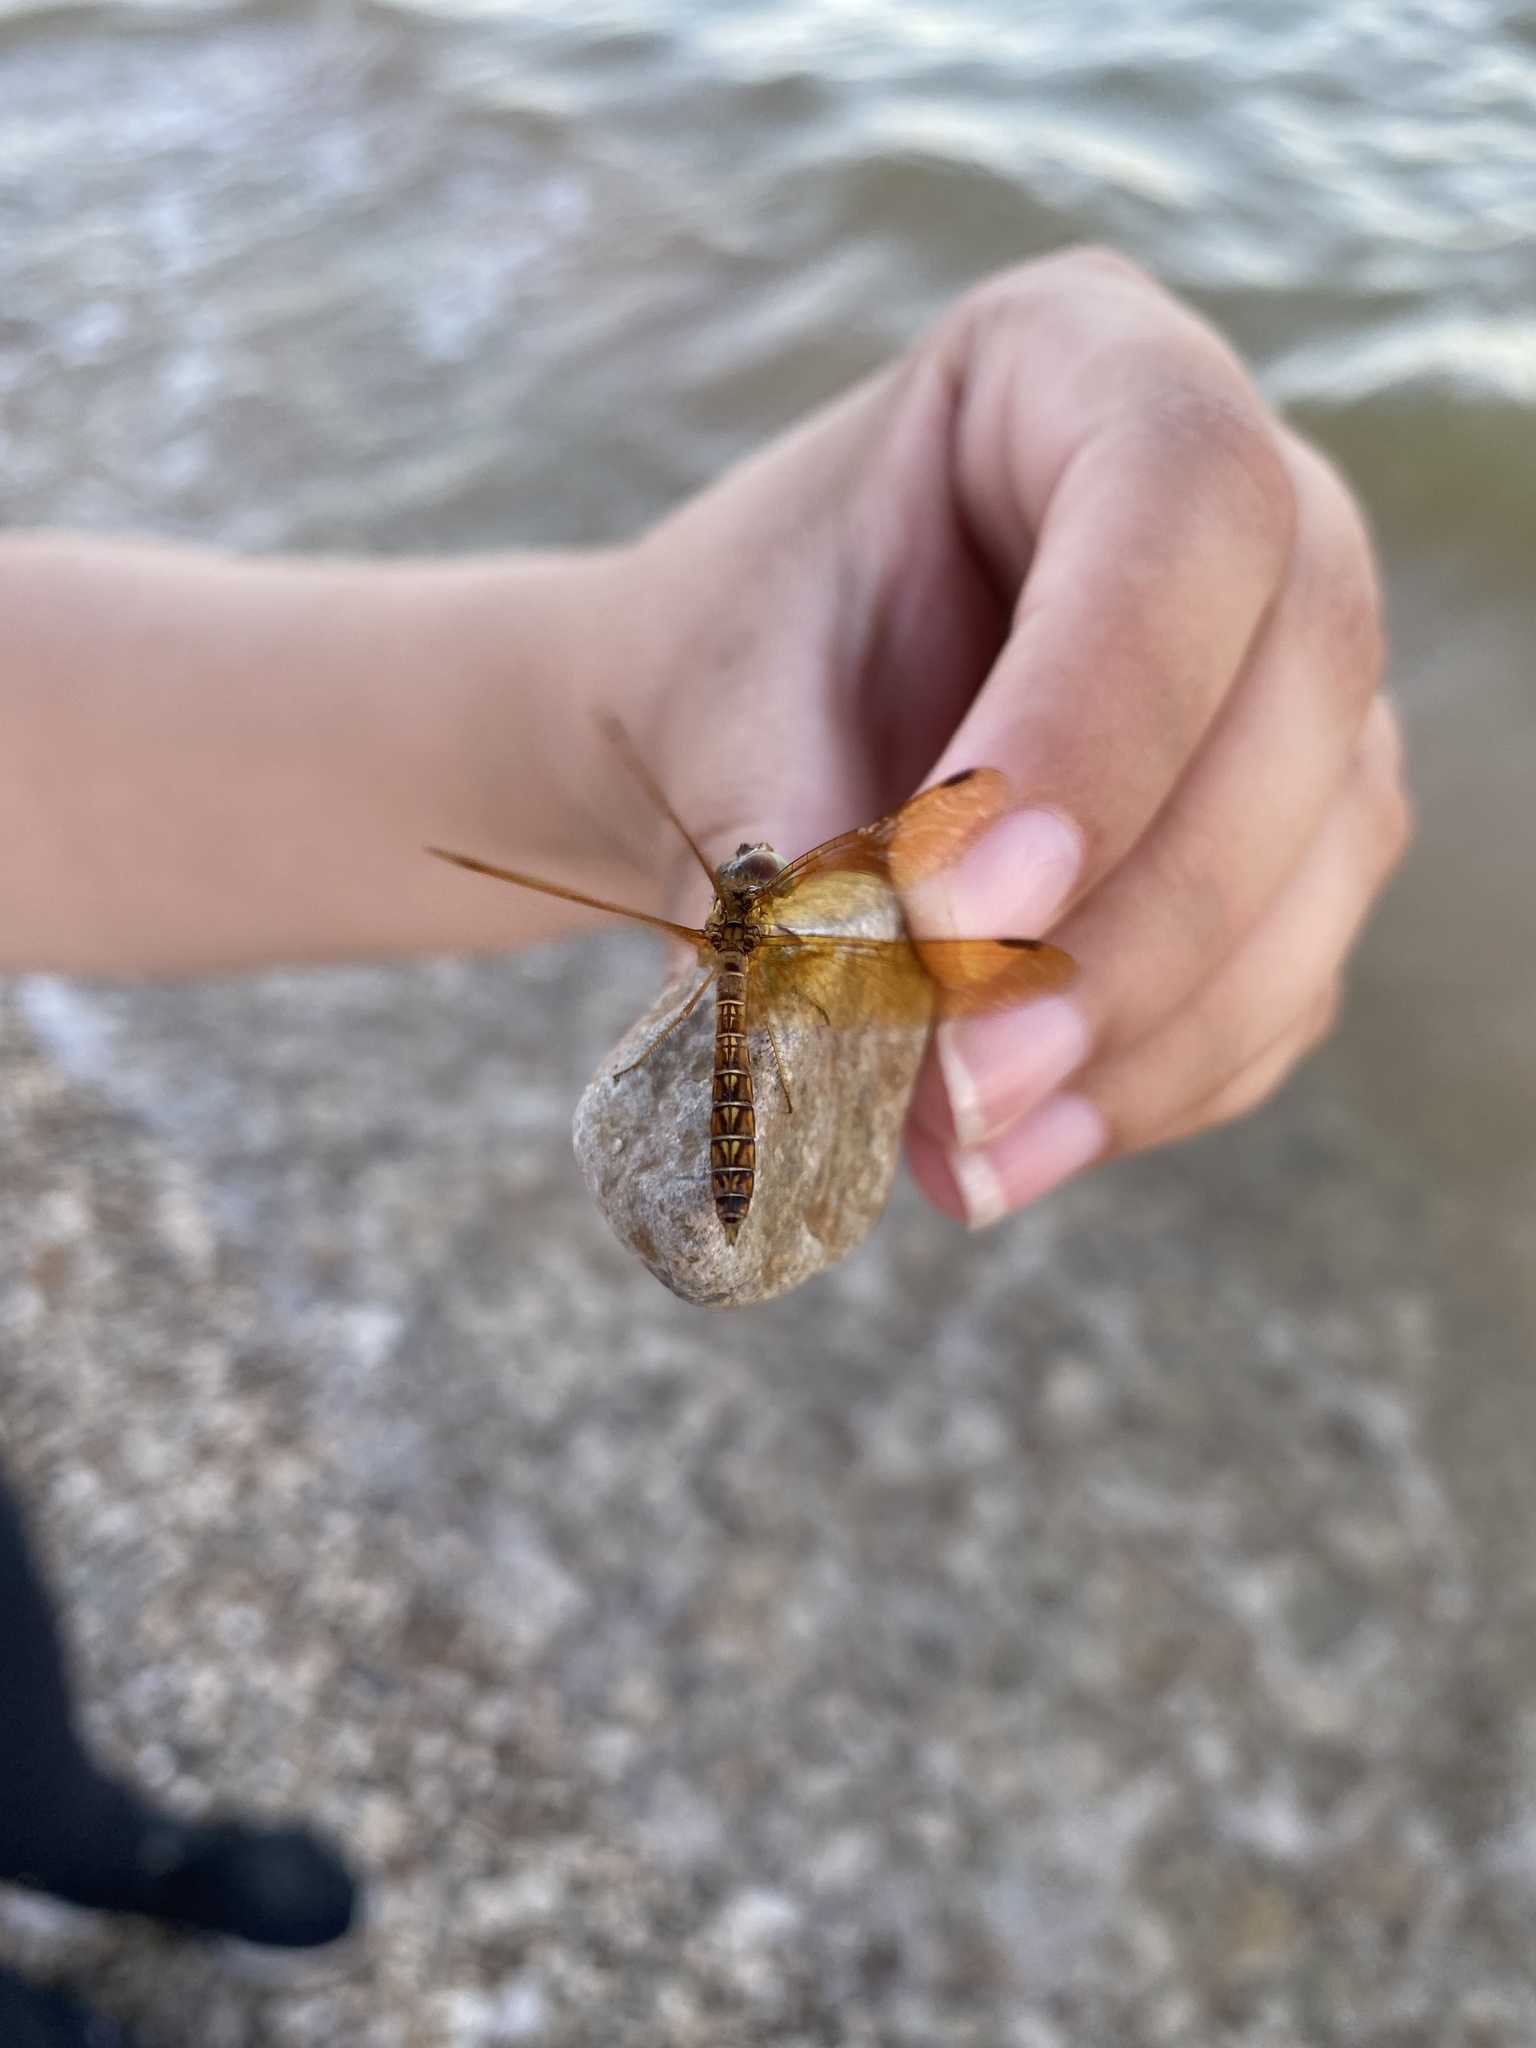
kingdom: Animalia
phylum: Arthropoda
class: Insecta
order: Odonata
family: Libellulidae
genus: Perithemis
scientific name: Perithemis tenera
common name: Eastern amberwing
